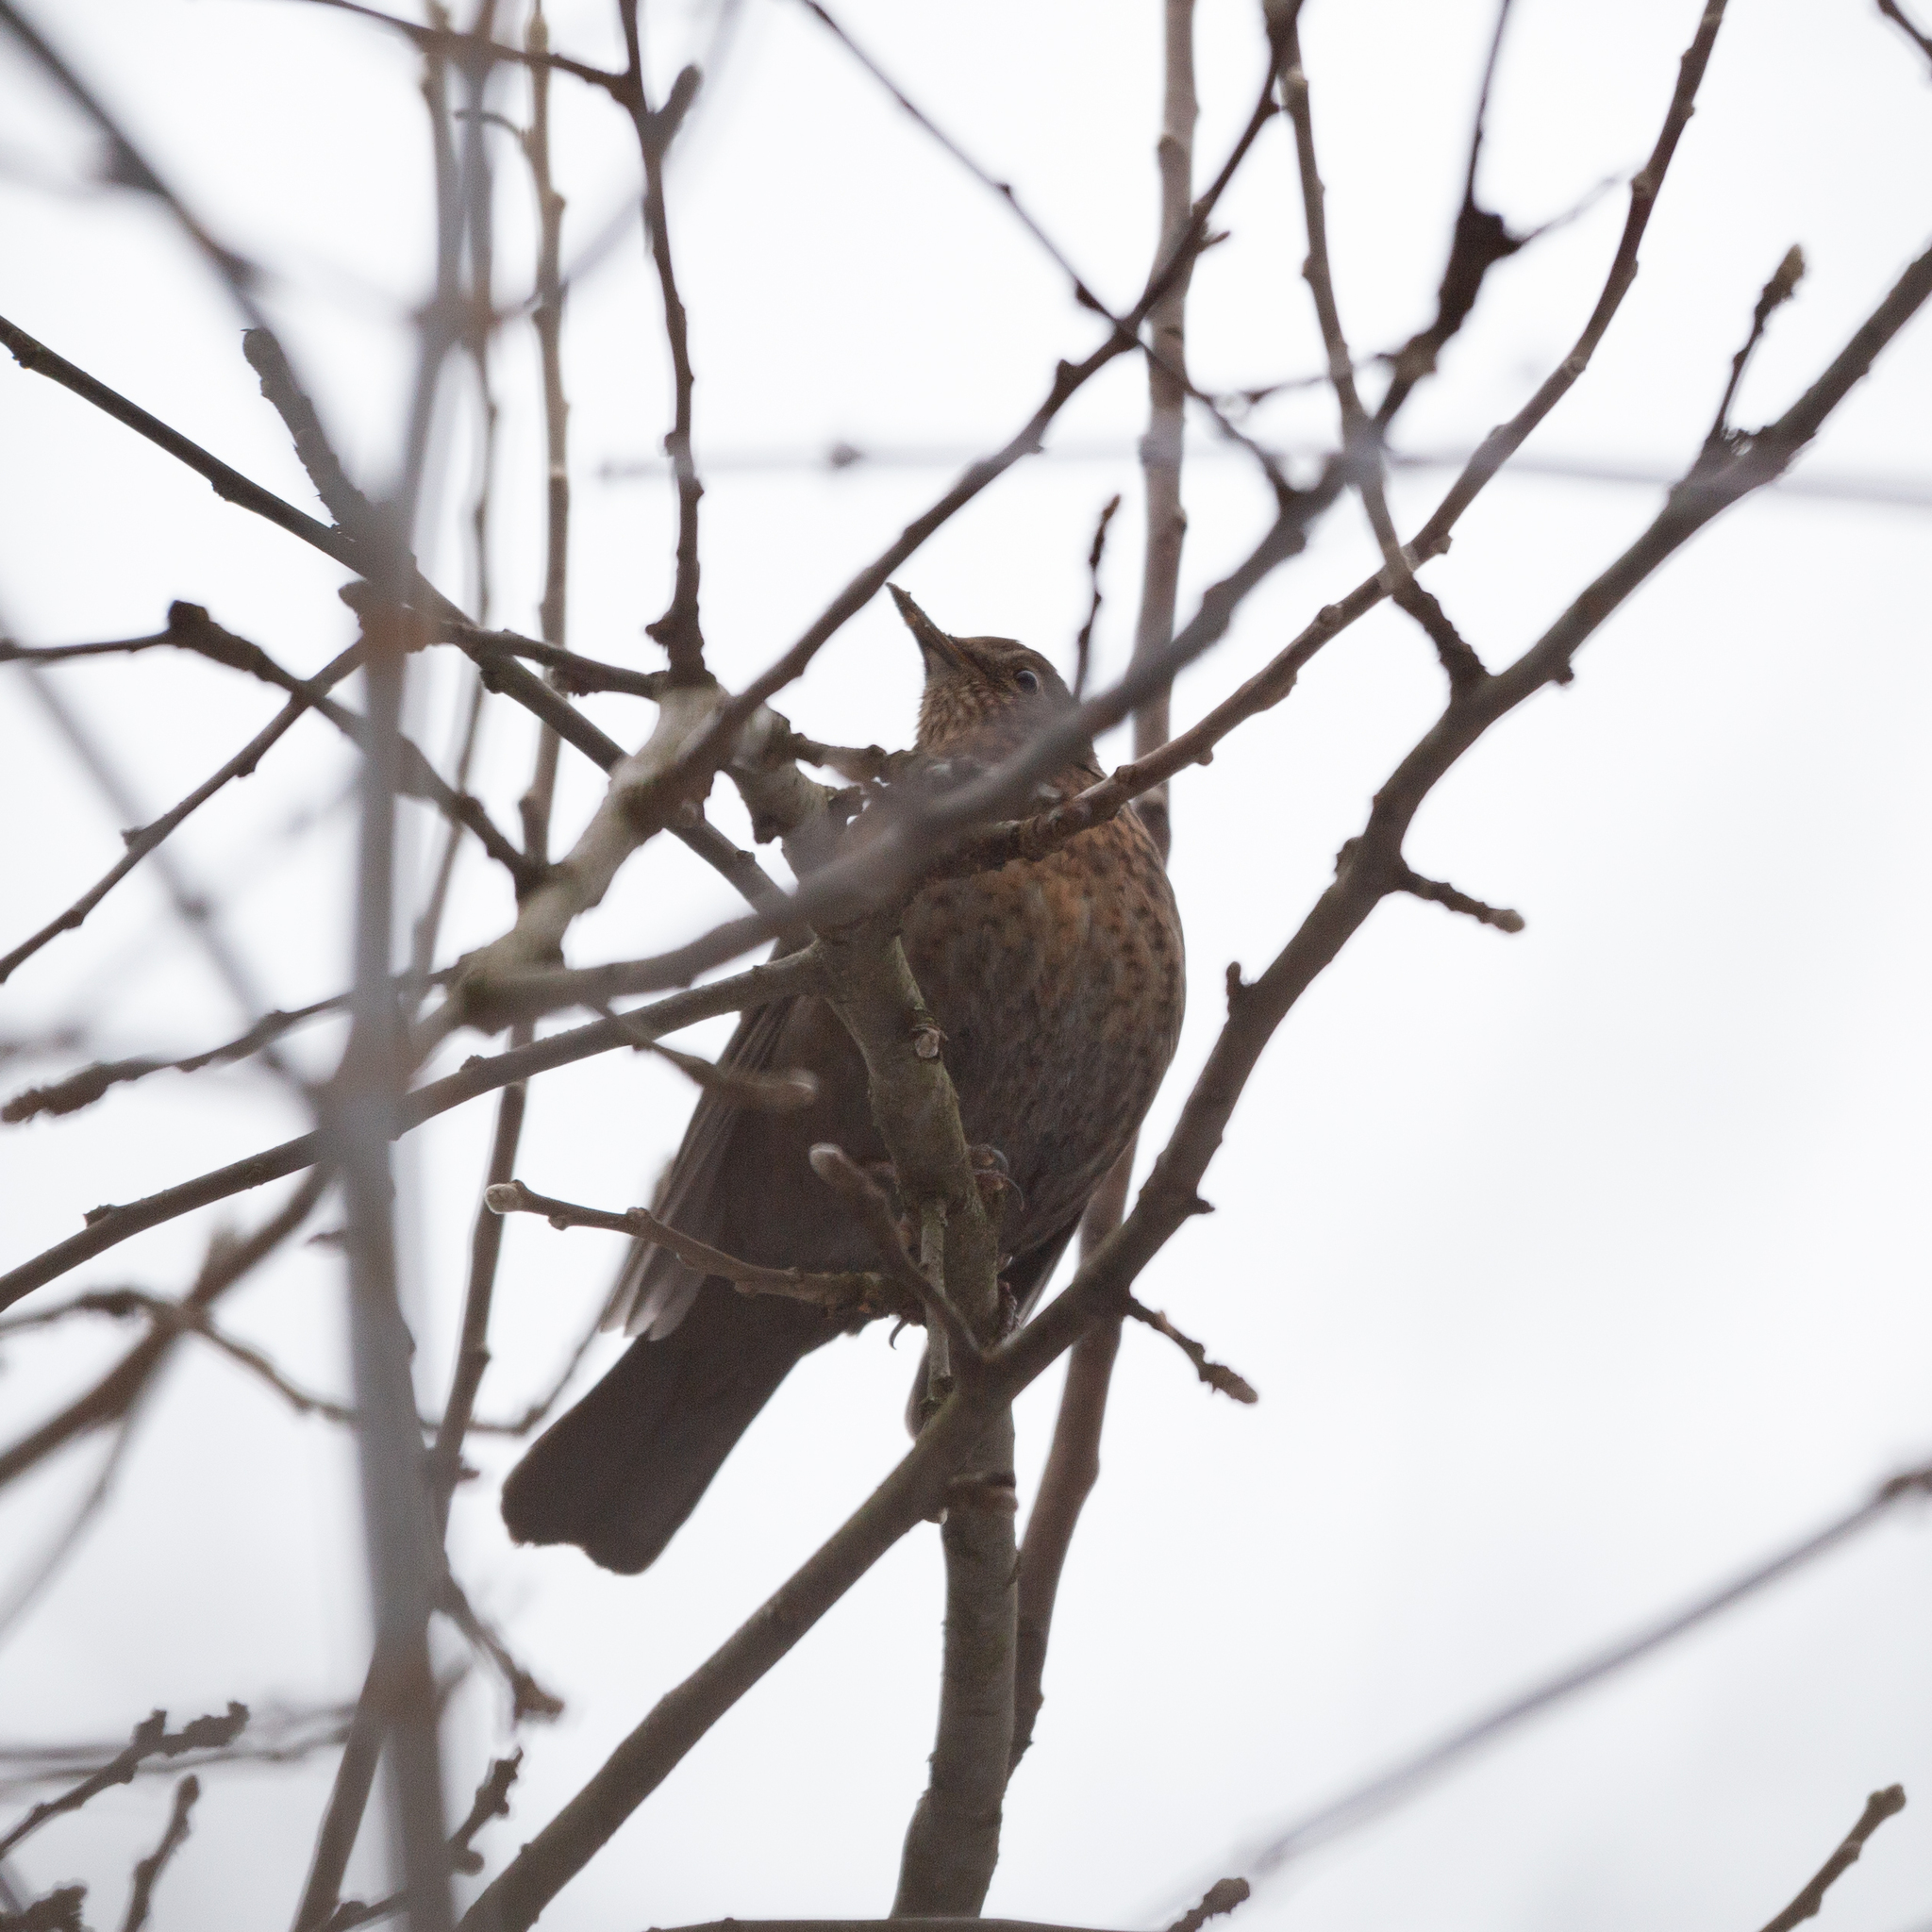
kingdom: Animalia
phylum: Chordata
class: Aves
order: Passeriformes
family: Turdidae
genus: Turdus
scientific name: Turdus merula
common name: Common blackbird
